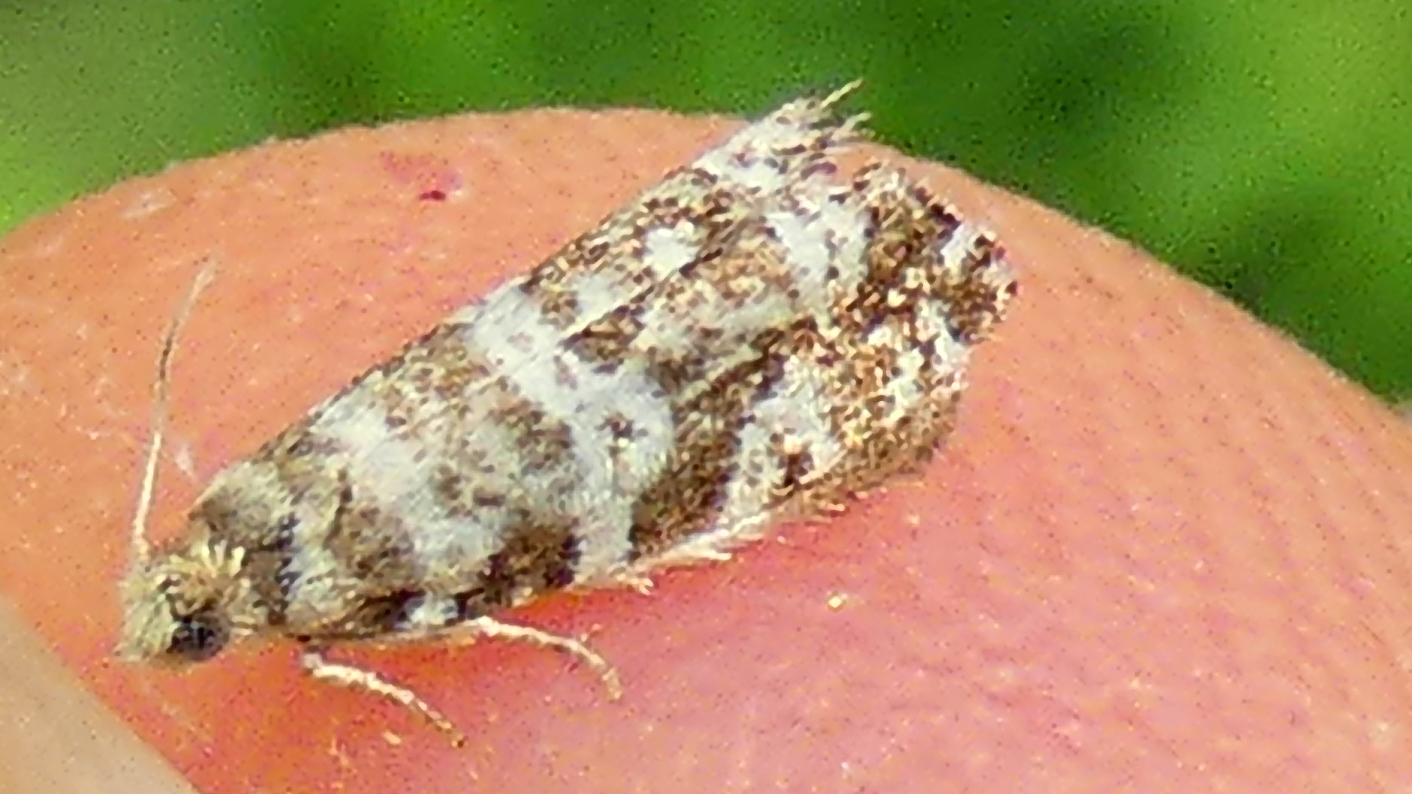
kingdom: Animalia
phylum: Arthropoda
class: Insecta
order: Lepidoptera
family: Tortricidae
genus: Epinotia
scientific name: Epinotia tedella
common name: Common spruce bell
